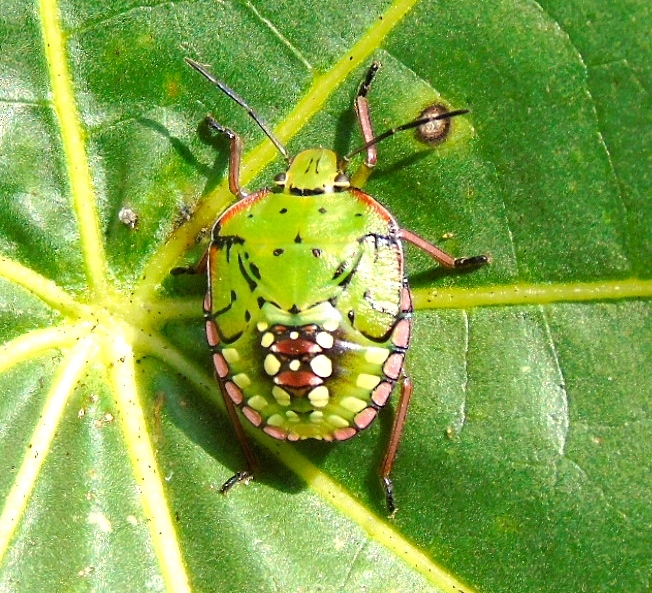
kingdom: Animalia
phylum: Arthropoda
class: Insecta
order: Hemiptera
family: Pentatomidae
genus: Nezara
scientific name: Nezara viridula
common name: Southern green stink bug
